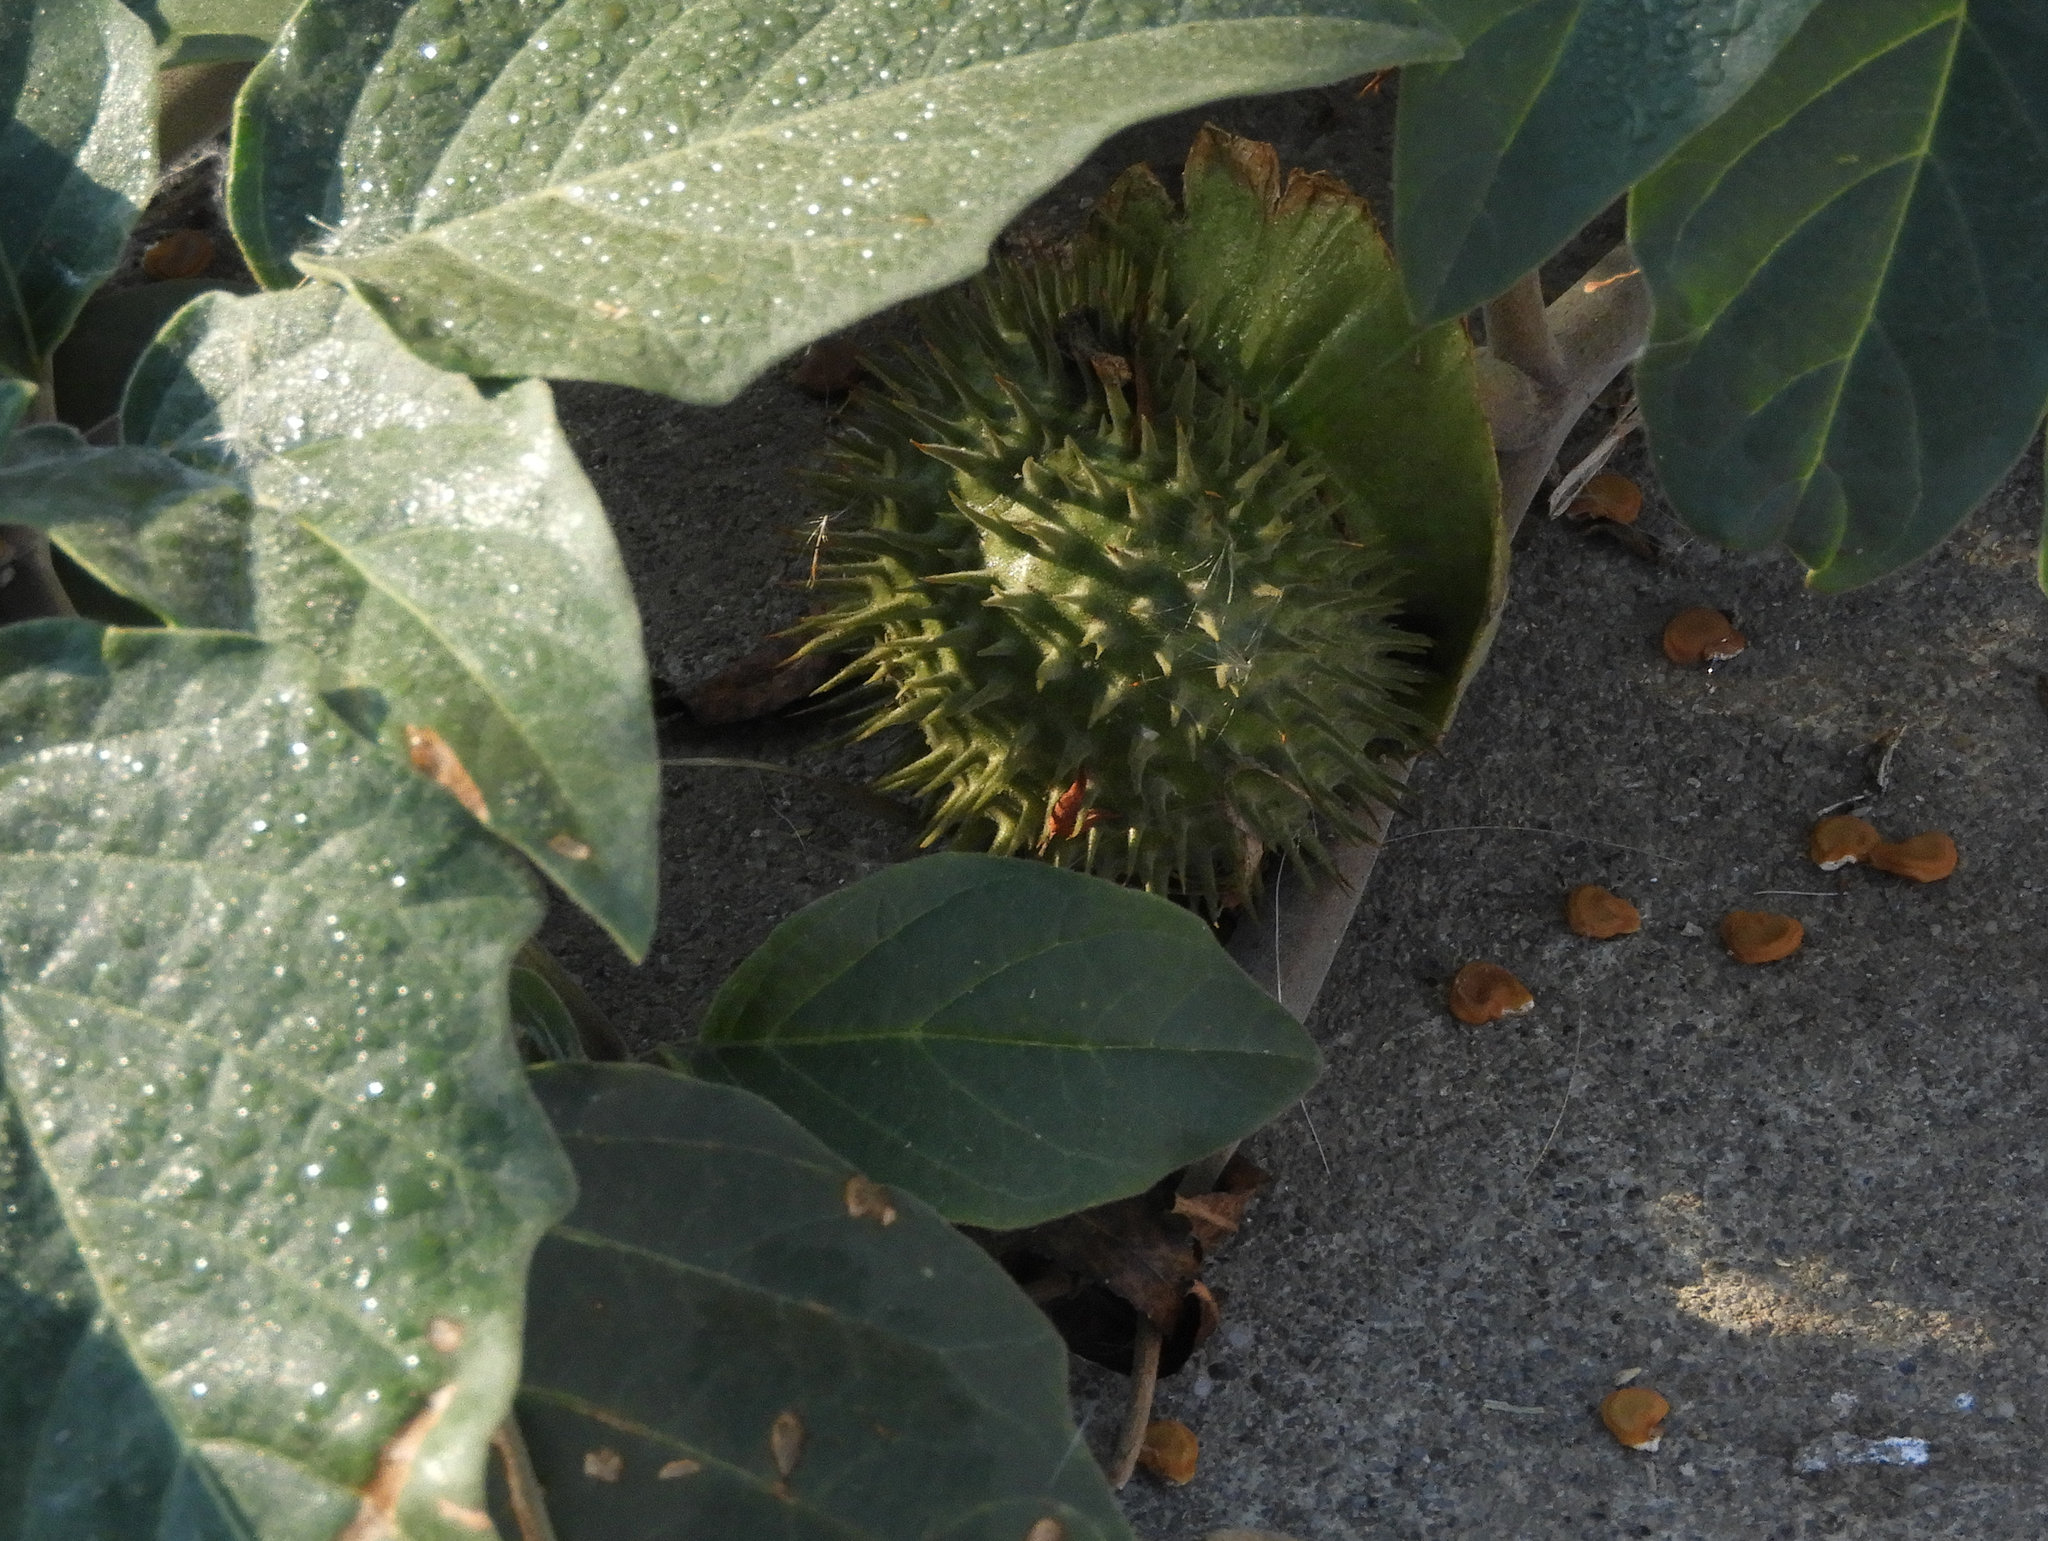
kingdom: Plantae
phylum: Tracheophyta
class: Magnoliopsida
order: Solanales
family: Solanaceae
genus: Datura
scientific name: Datura wrightii
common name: Sacred thorn-apple
